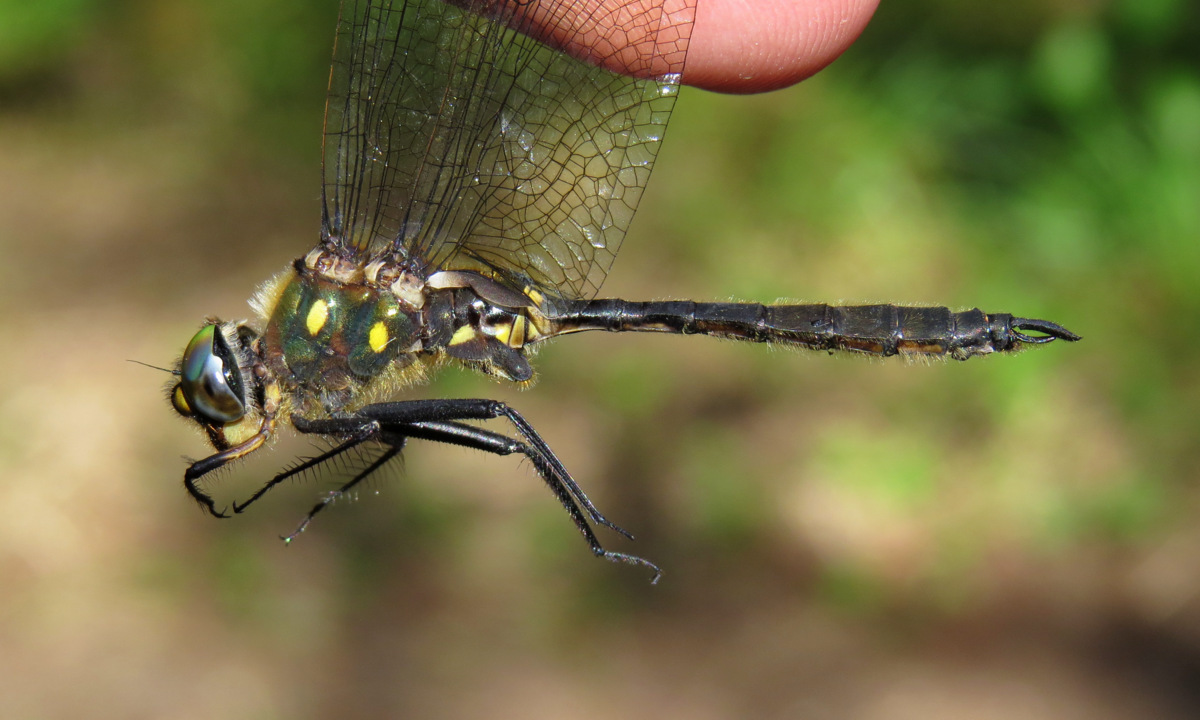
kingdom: Animalia
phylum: Arthropoda
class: Insecta
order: Odonata
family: Corduliidae
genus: Somatochlora
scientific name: Somatochlora minor
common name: Ocellated emerald
